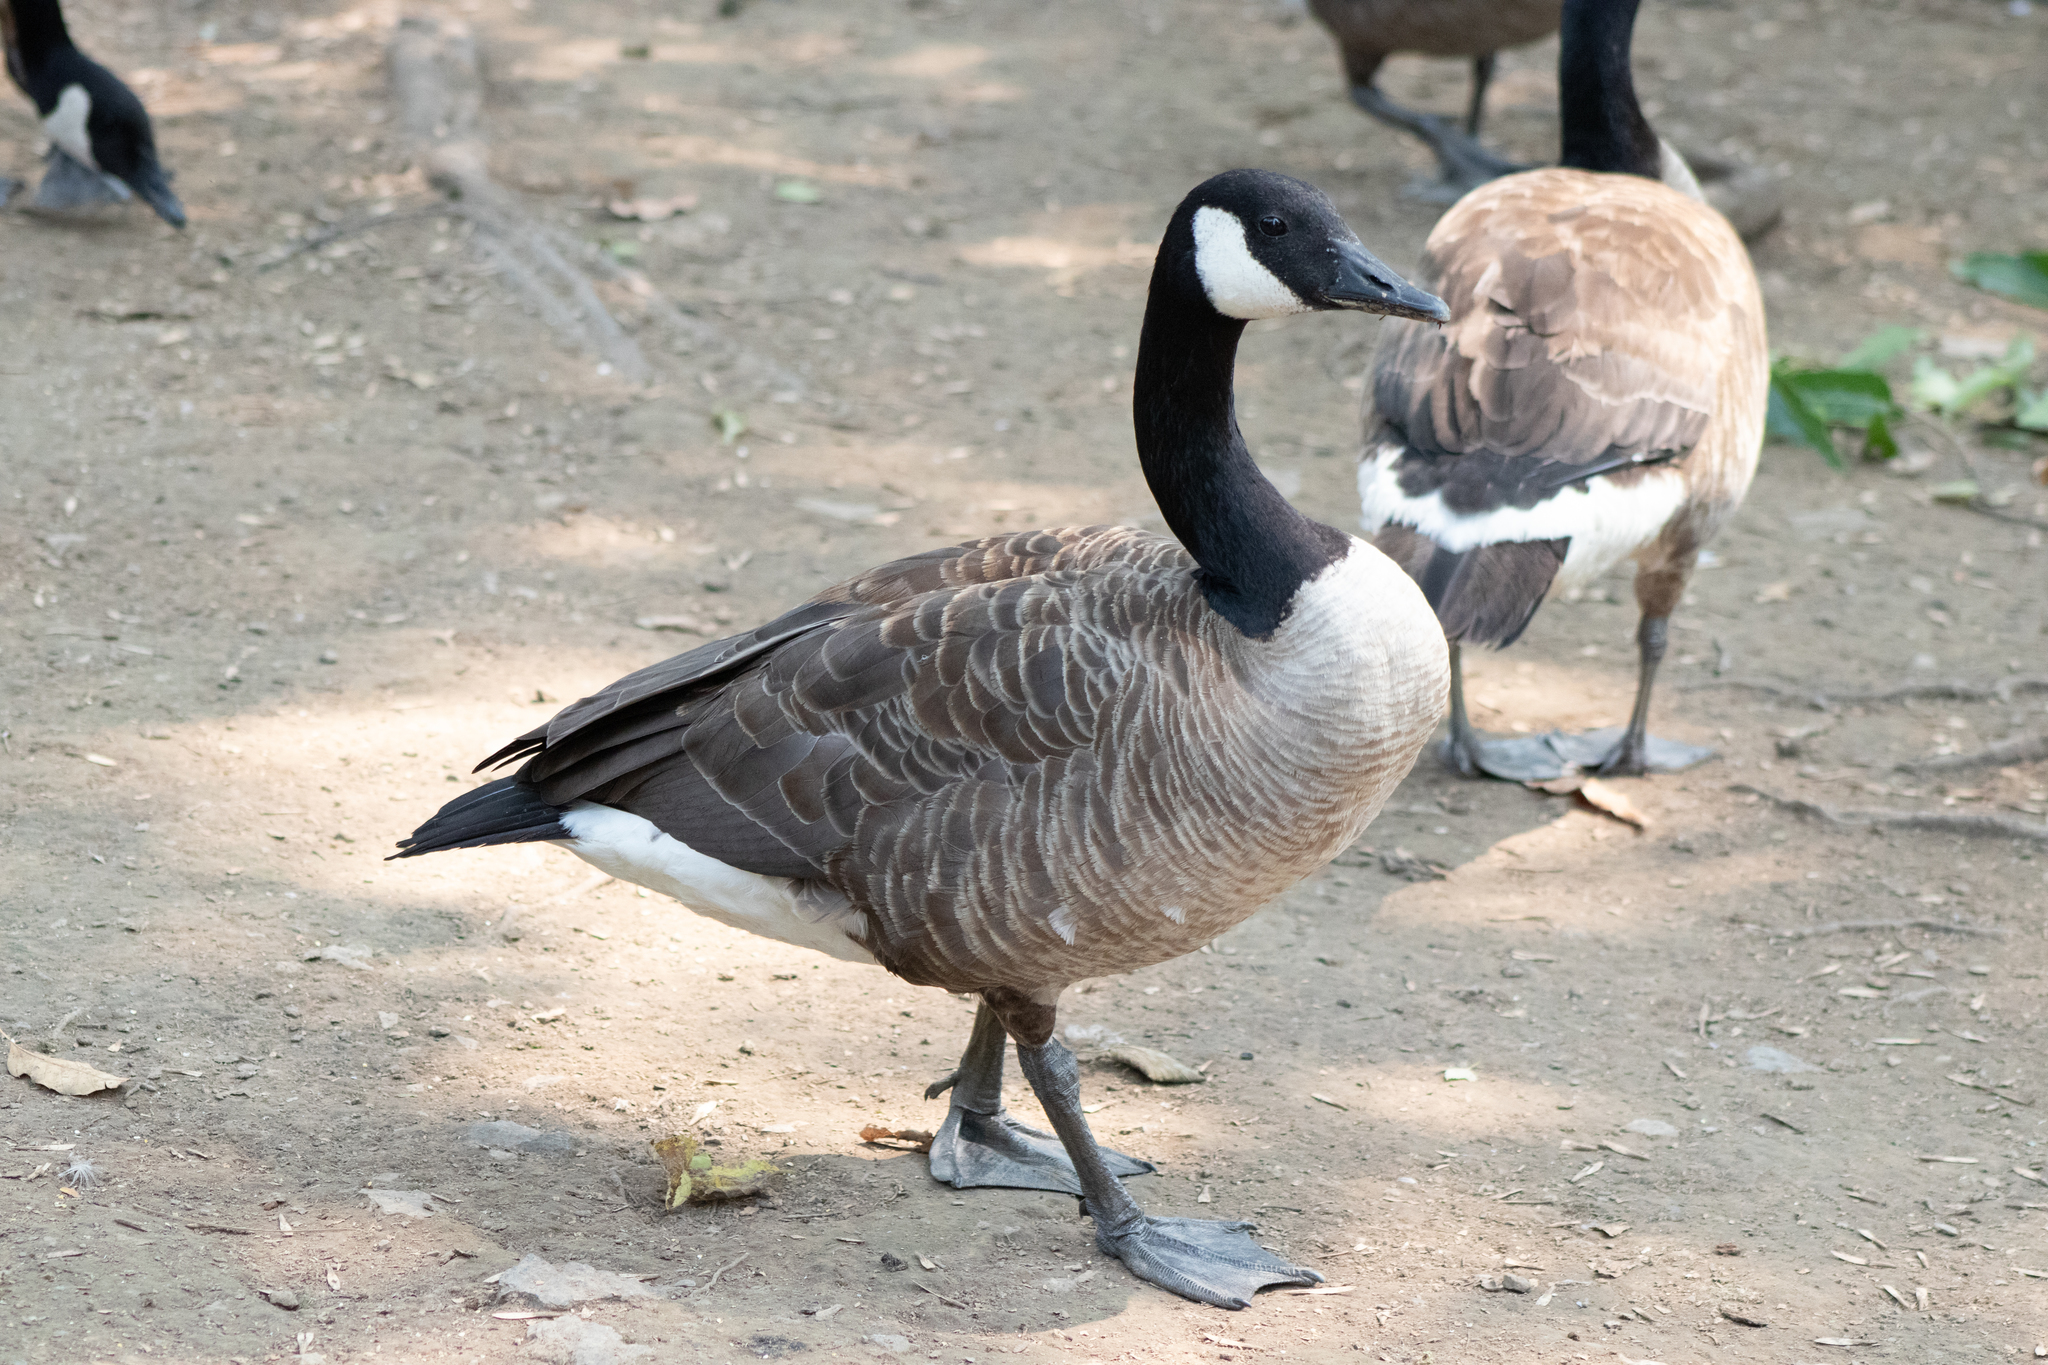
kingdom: Animalia
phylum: Chordata
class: Aves
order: Anseriformes
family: Anatidae
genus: Branta
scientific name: Branta canadensis
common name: Canada goose
